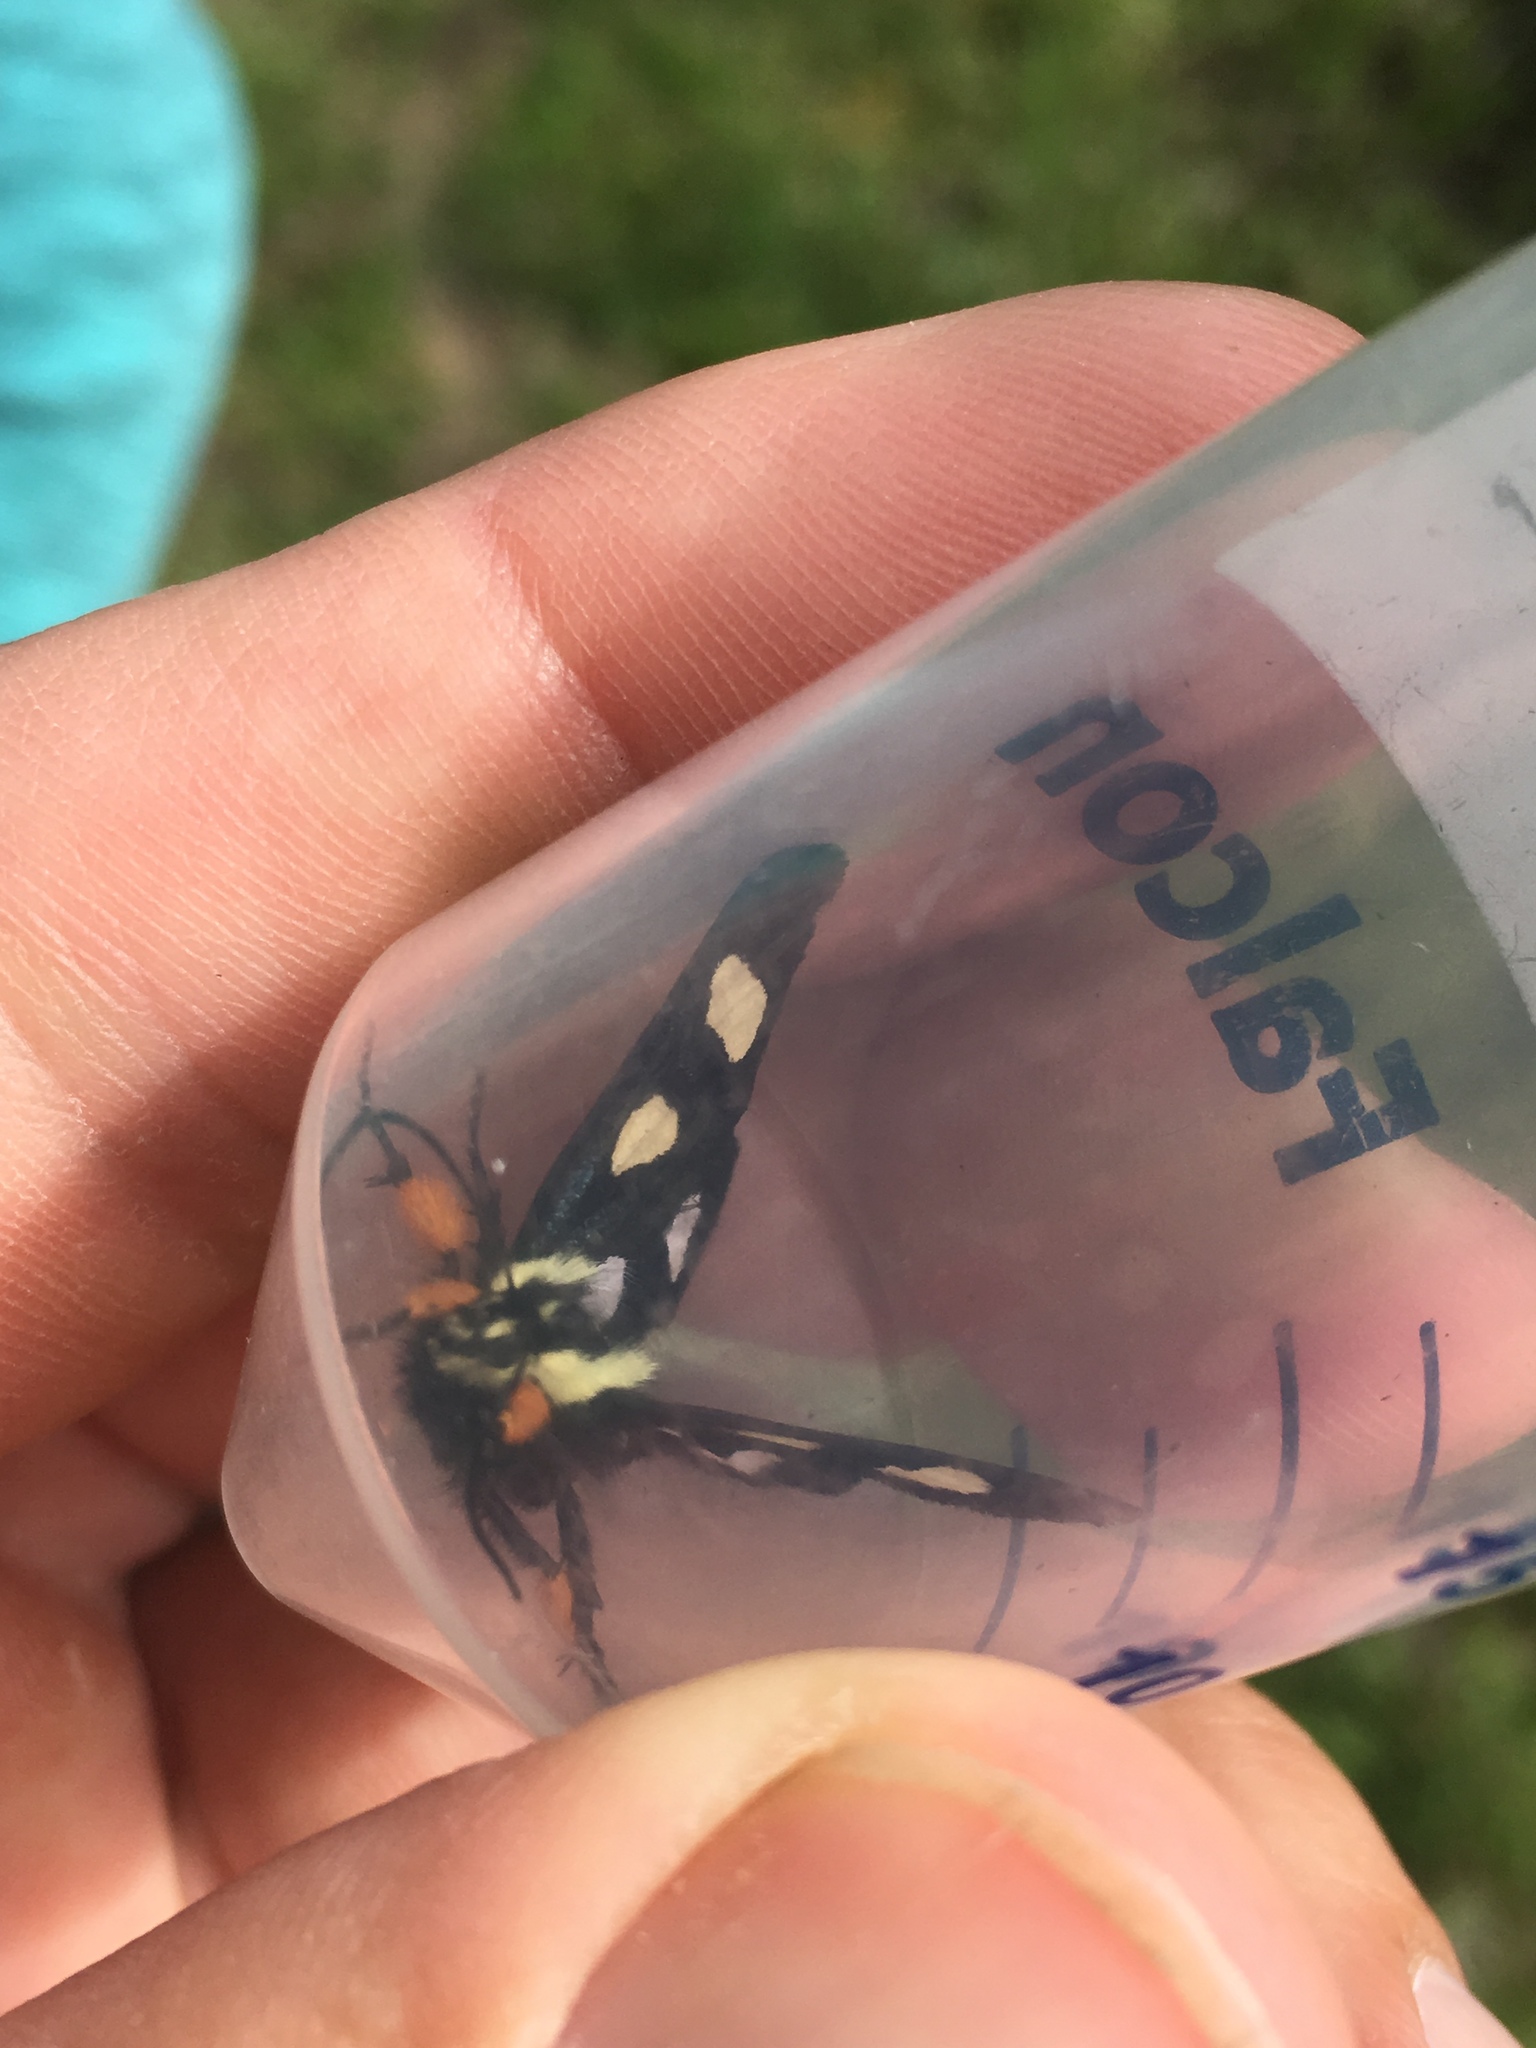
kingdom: Animalia
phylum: Arthropoda
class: Insecta
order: Lepidoptera
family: Noctuidae
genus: Alypia
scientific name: Alypia octomaculata
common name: Eight-spotted forester
